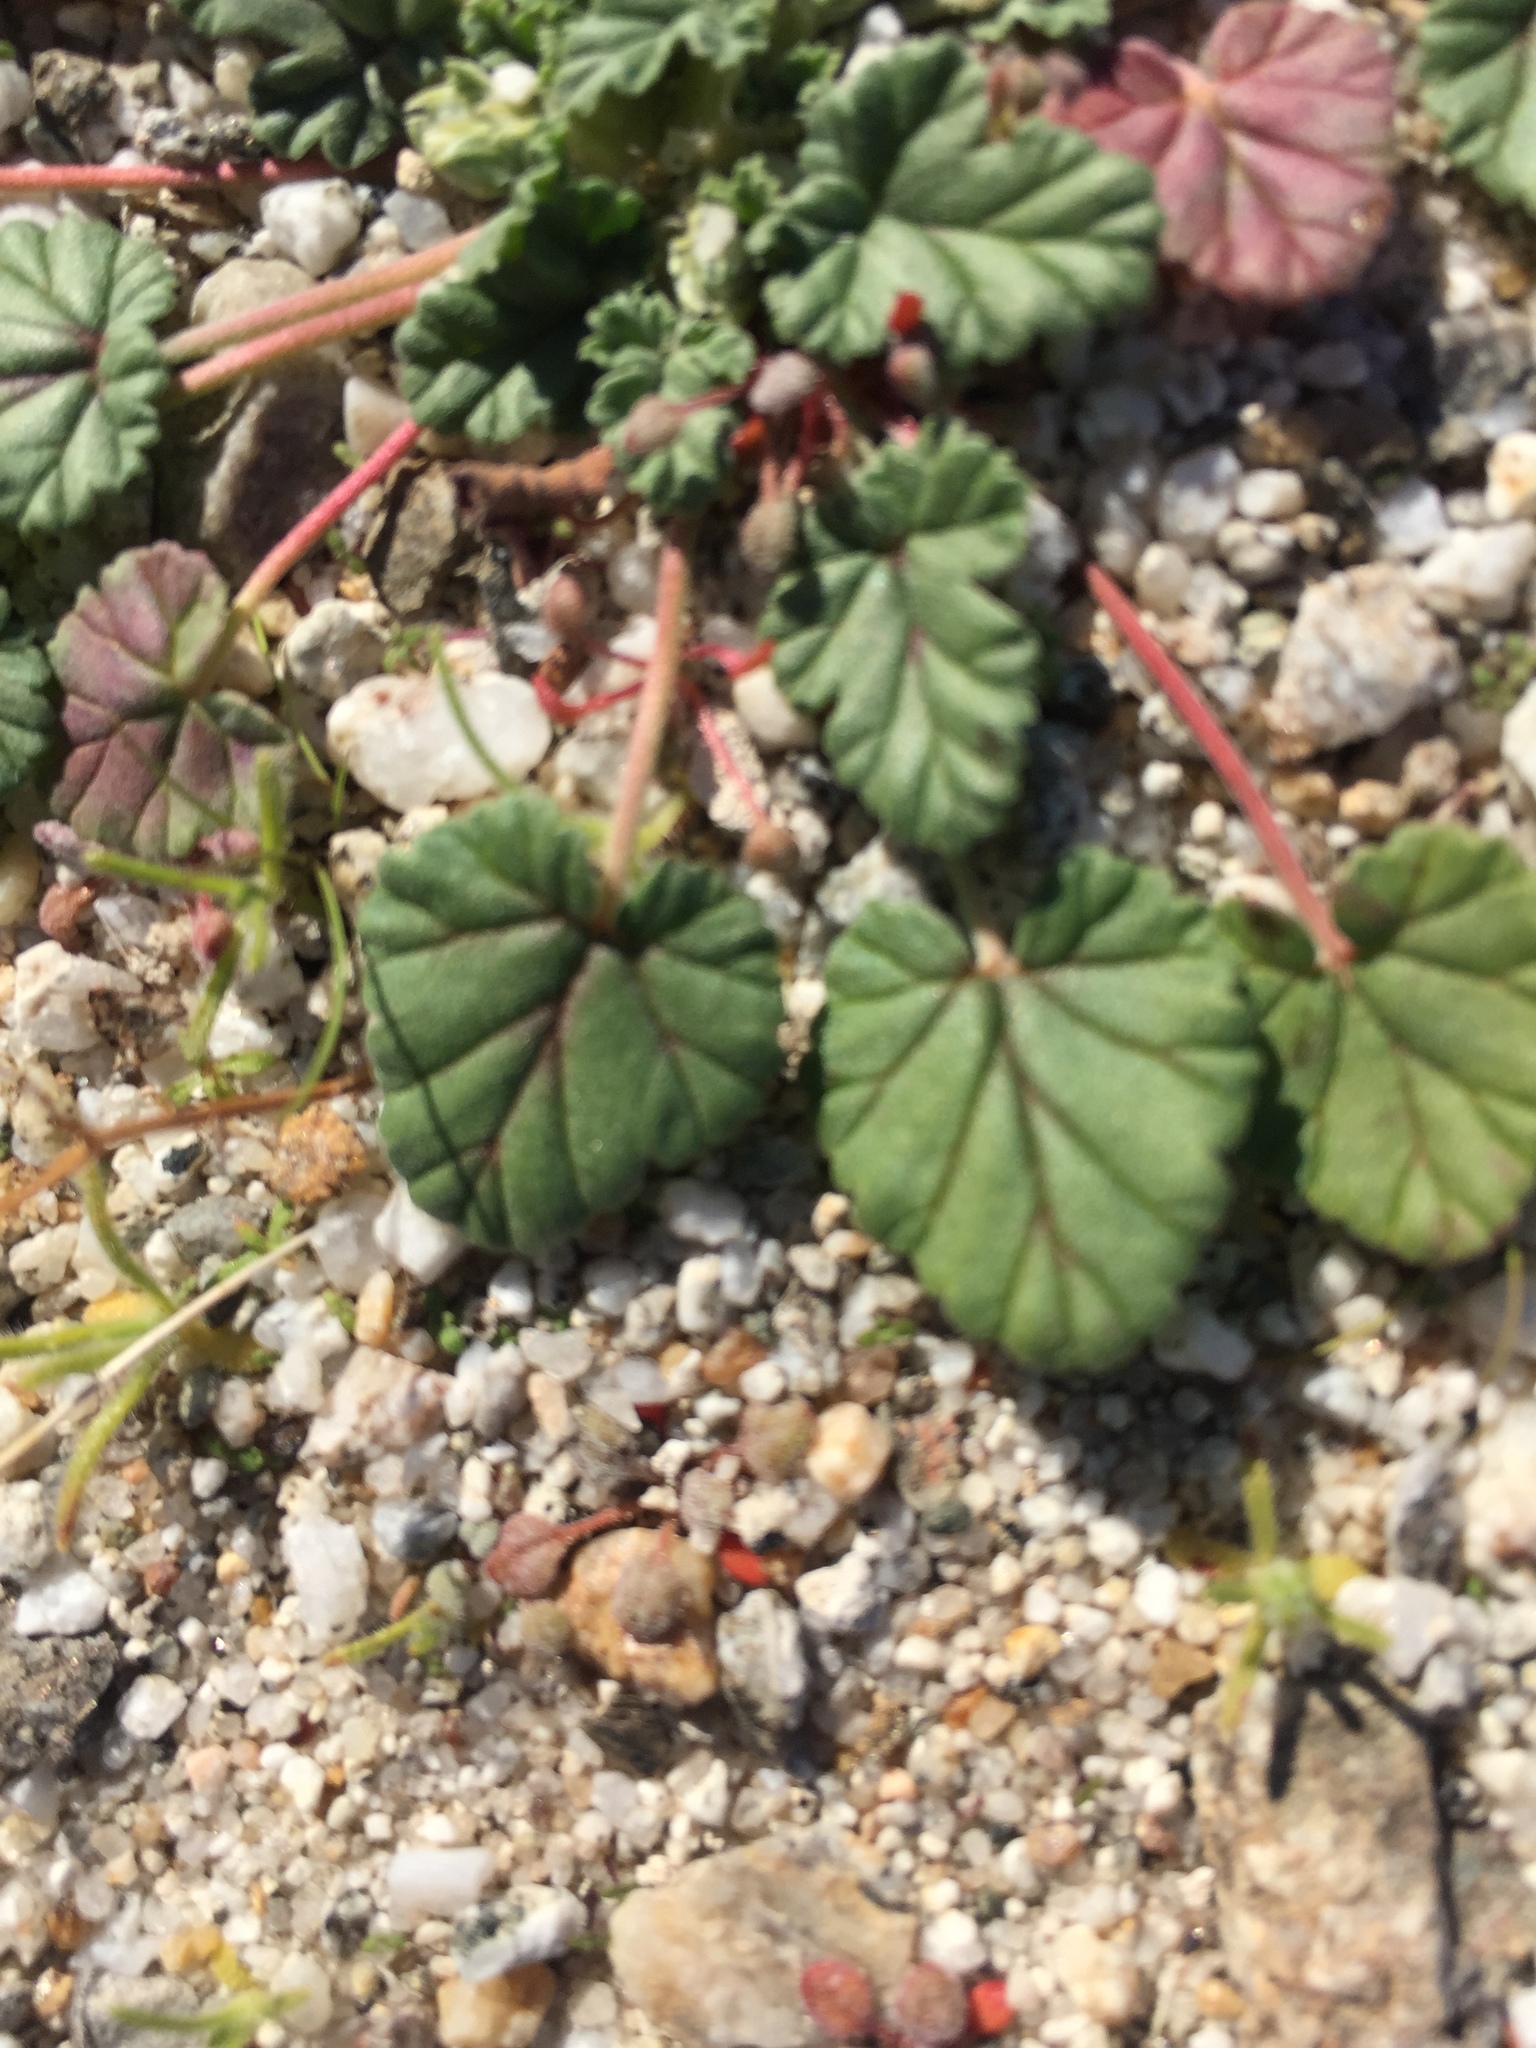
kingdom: Plantae
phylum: Tracheophyta
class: Magnoliopsida
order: Geraniales
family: Geraniaceae
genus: Erodium
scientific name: Erodium texanum
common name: Texas stork's-bill
